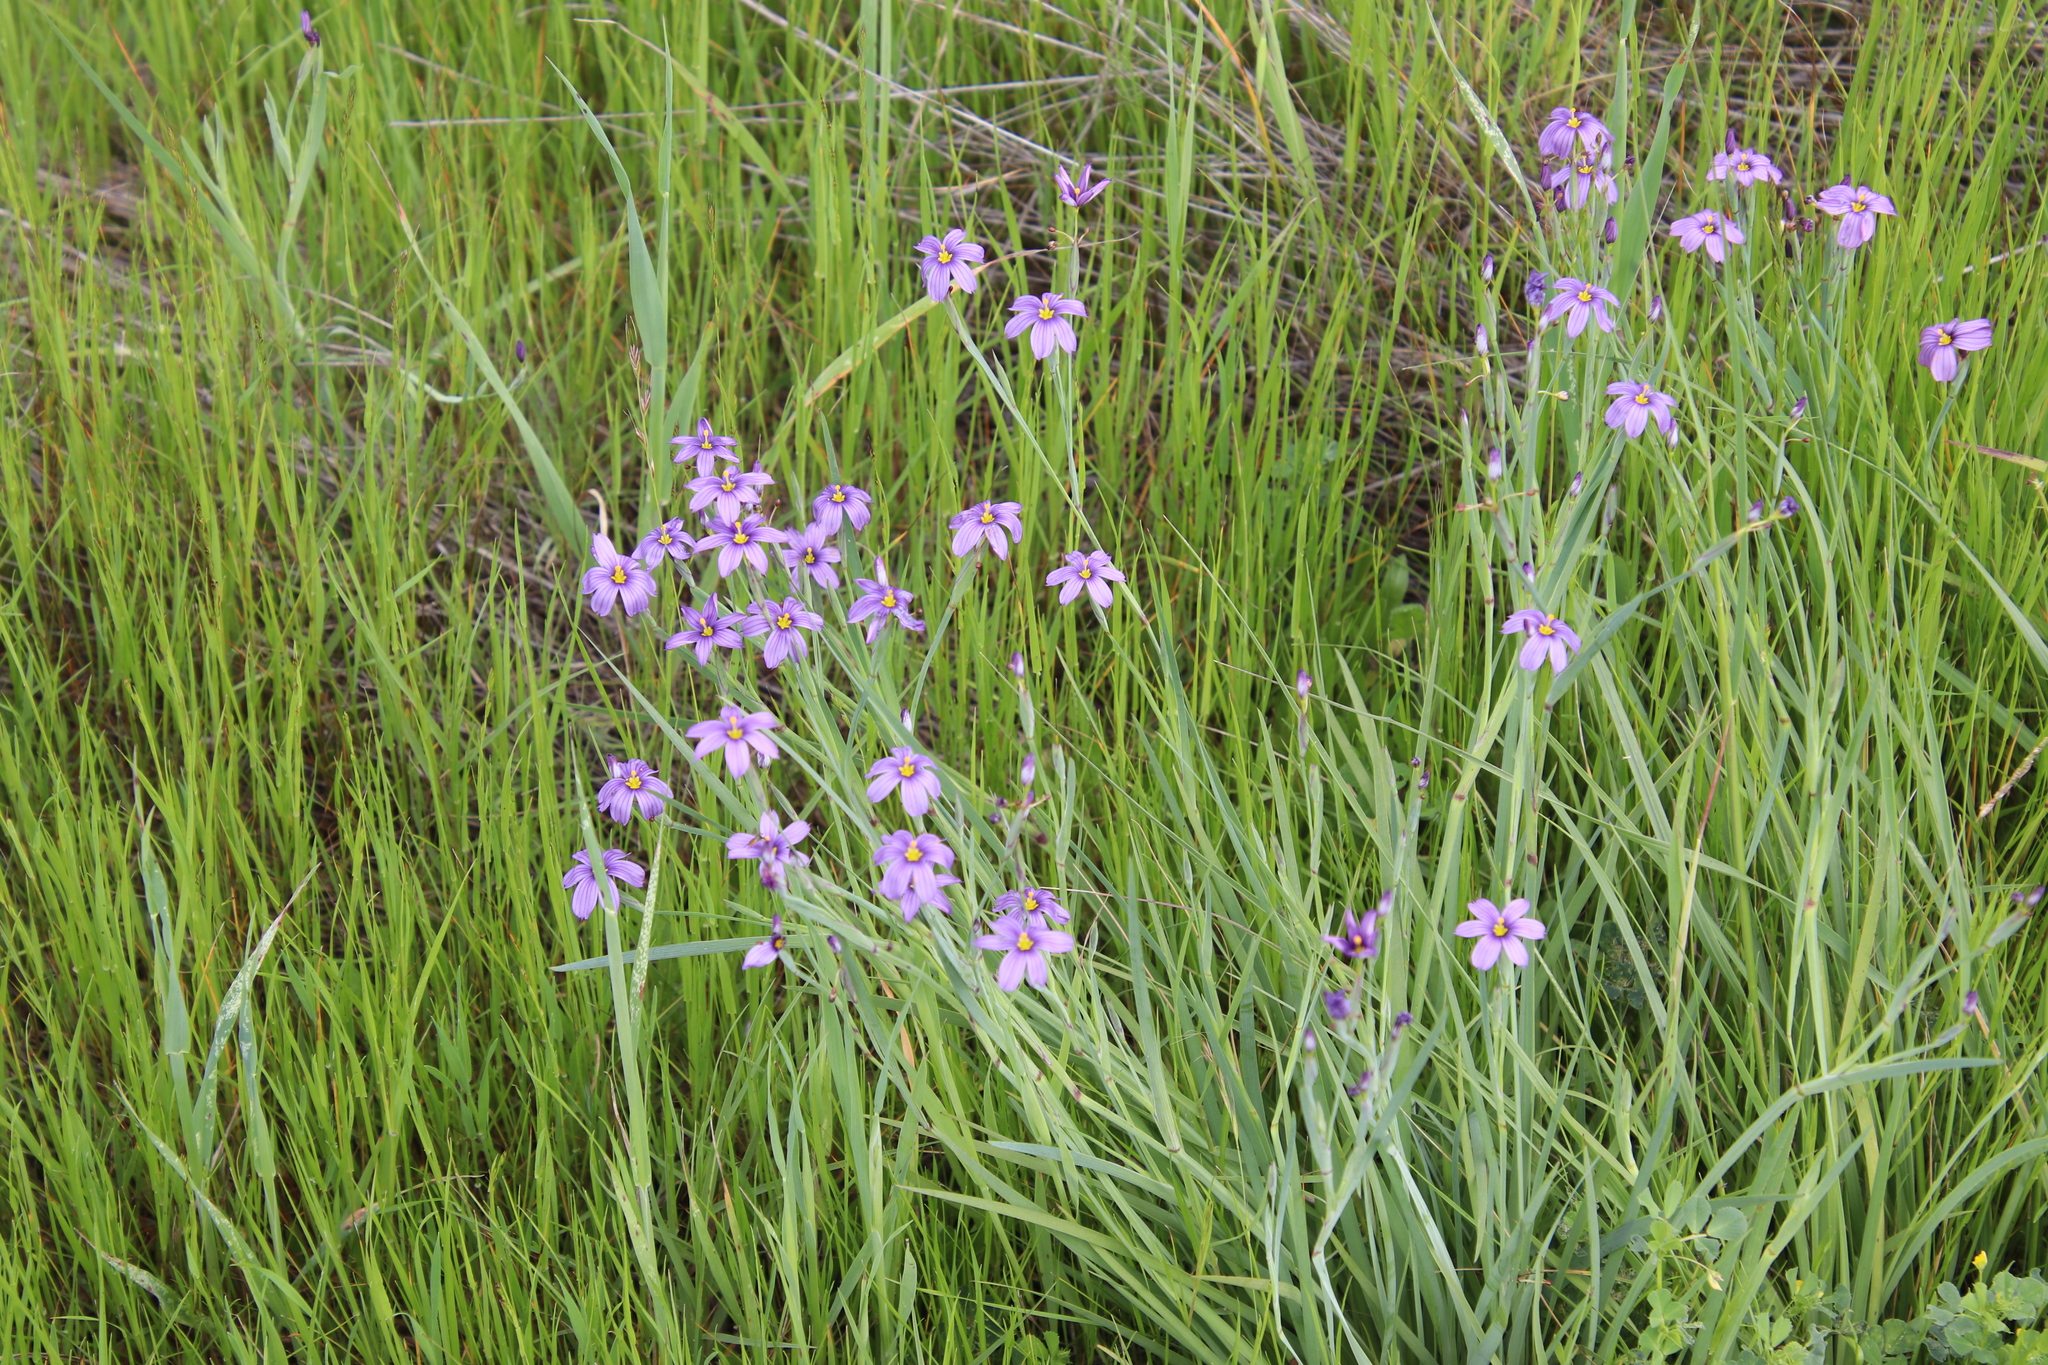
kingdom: Plantae
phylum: Tracheophyta
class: Liliopsida
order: Asparagales
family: Iridaceae
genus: Sisyrinchium
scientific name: Sisyrinchium bellum
